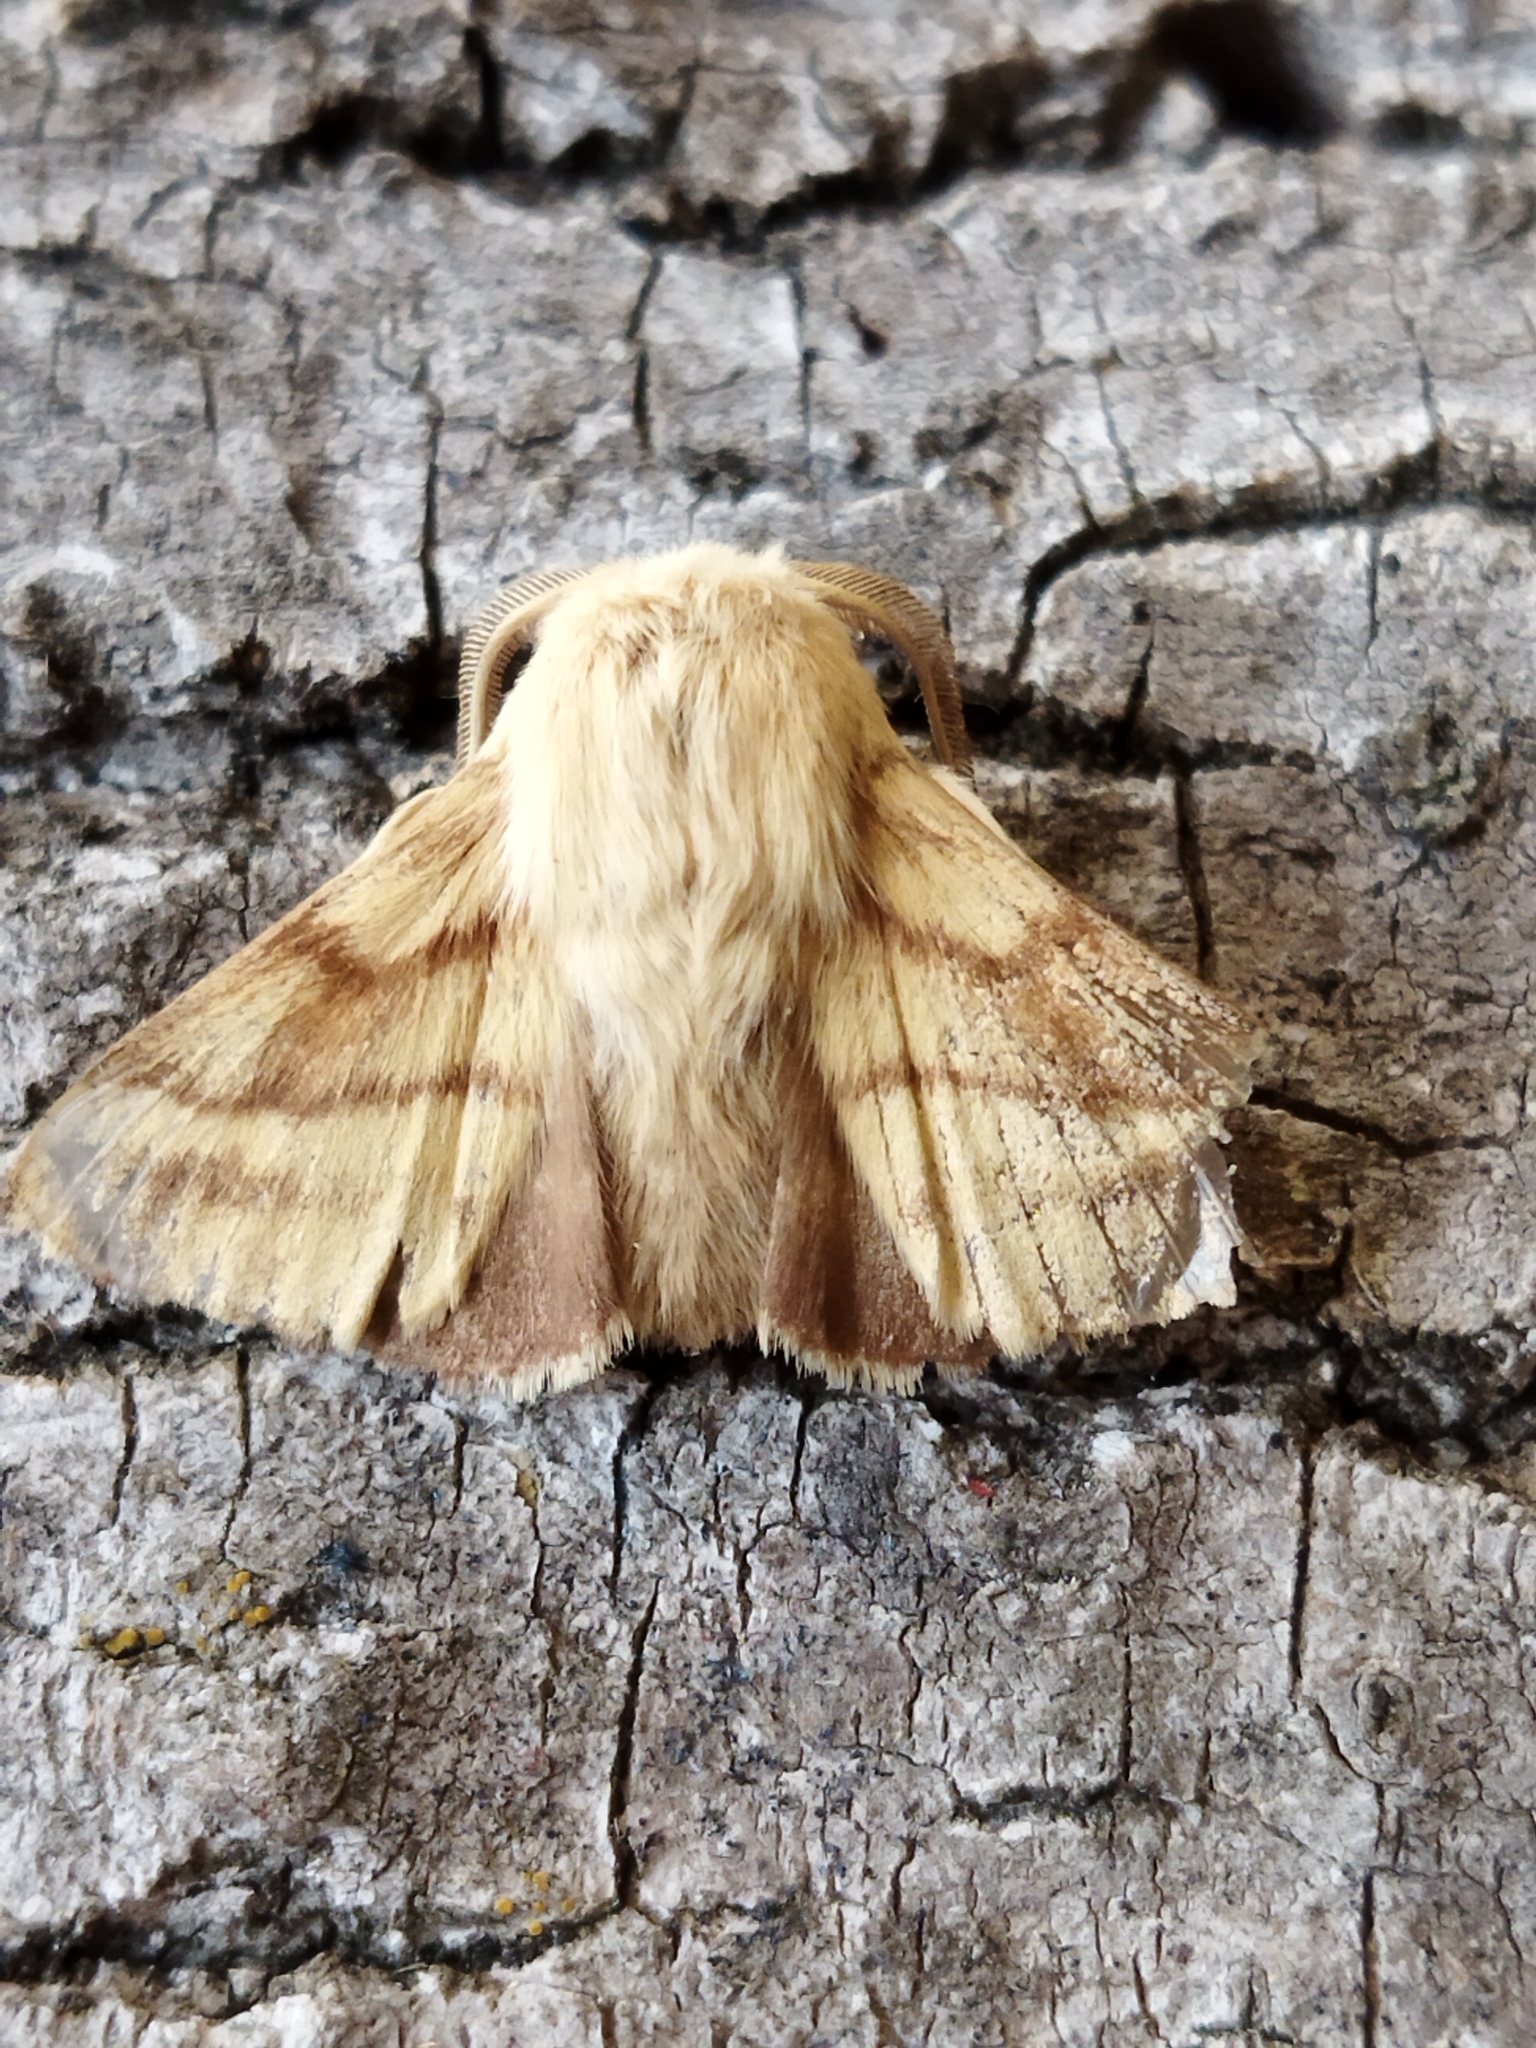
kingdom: Animalia
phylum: Arthropoda
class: Insecta
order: Lepidoptera
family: Lasiocampidae
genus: Malacosoma
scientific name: Malacosoma castrense
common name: Ground lackey
